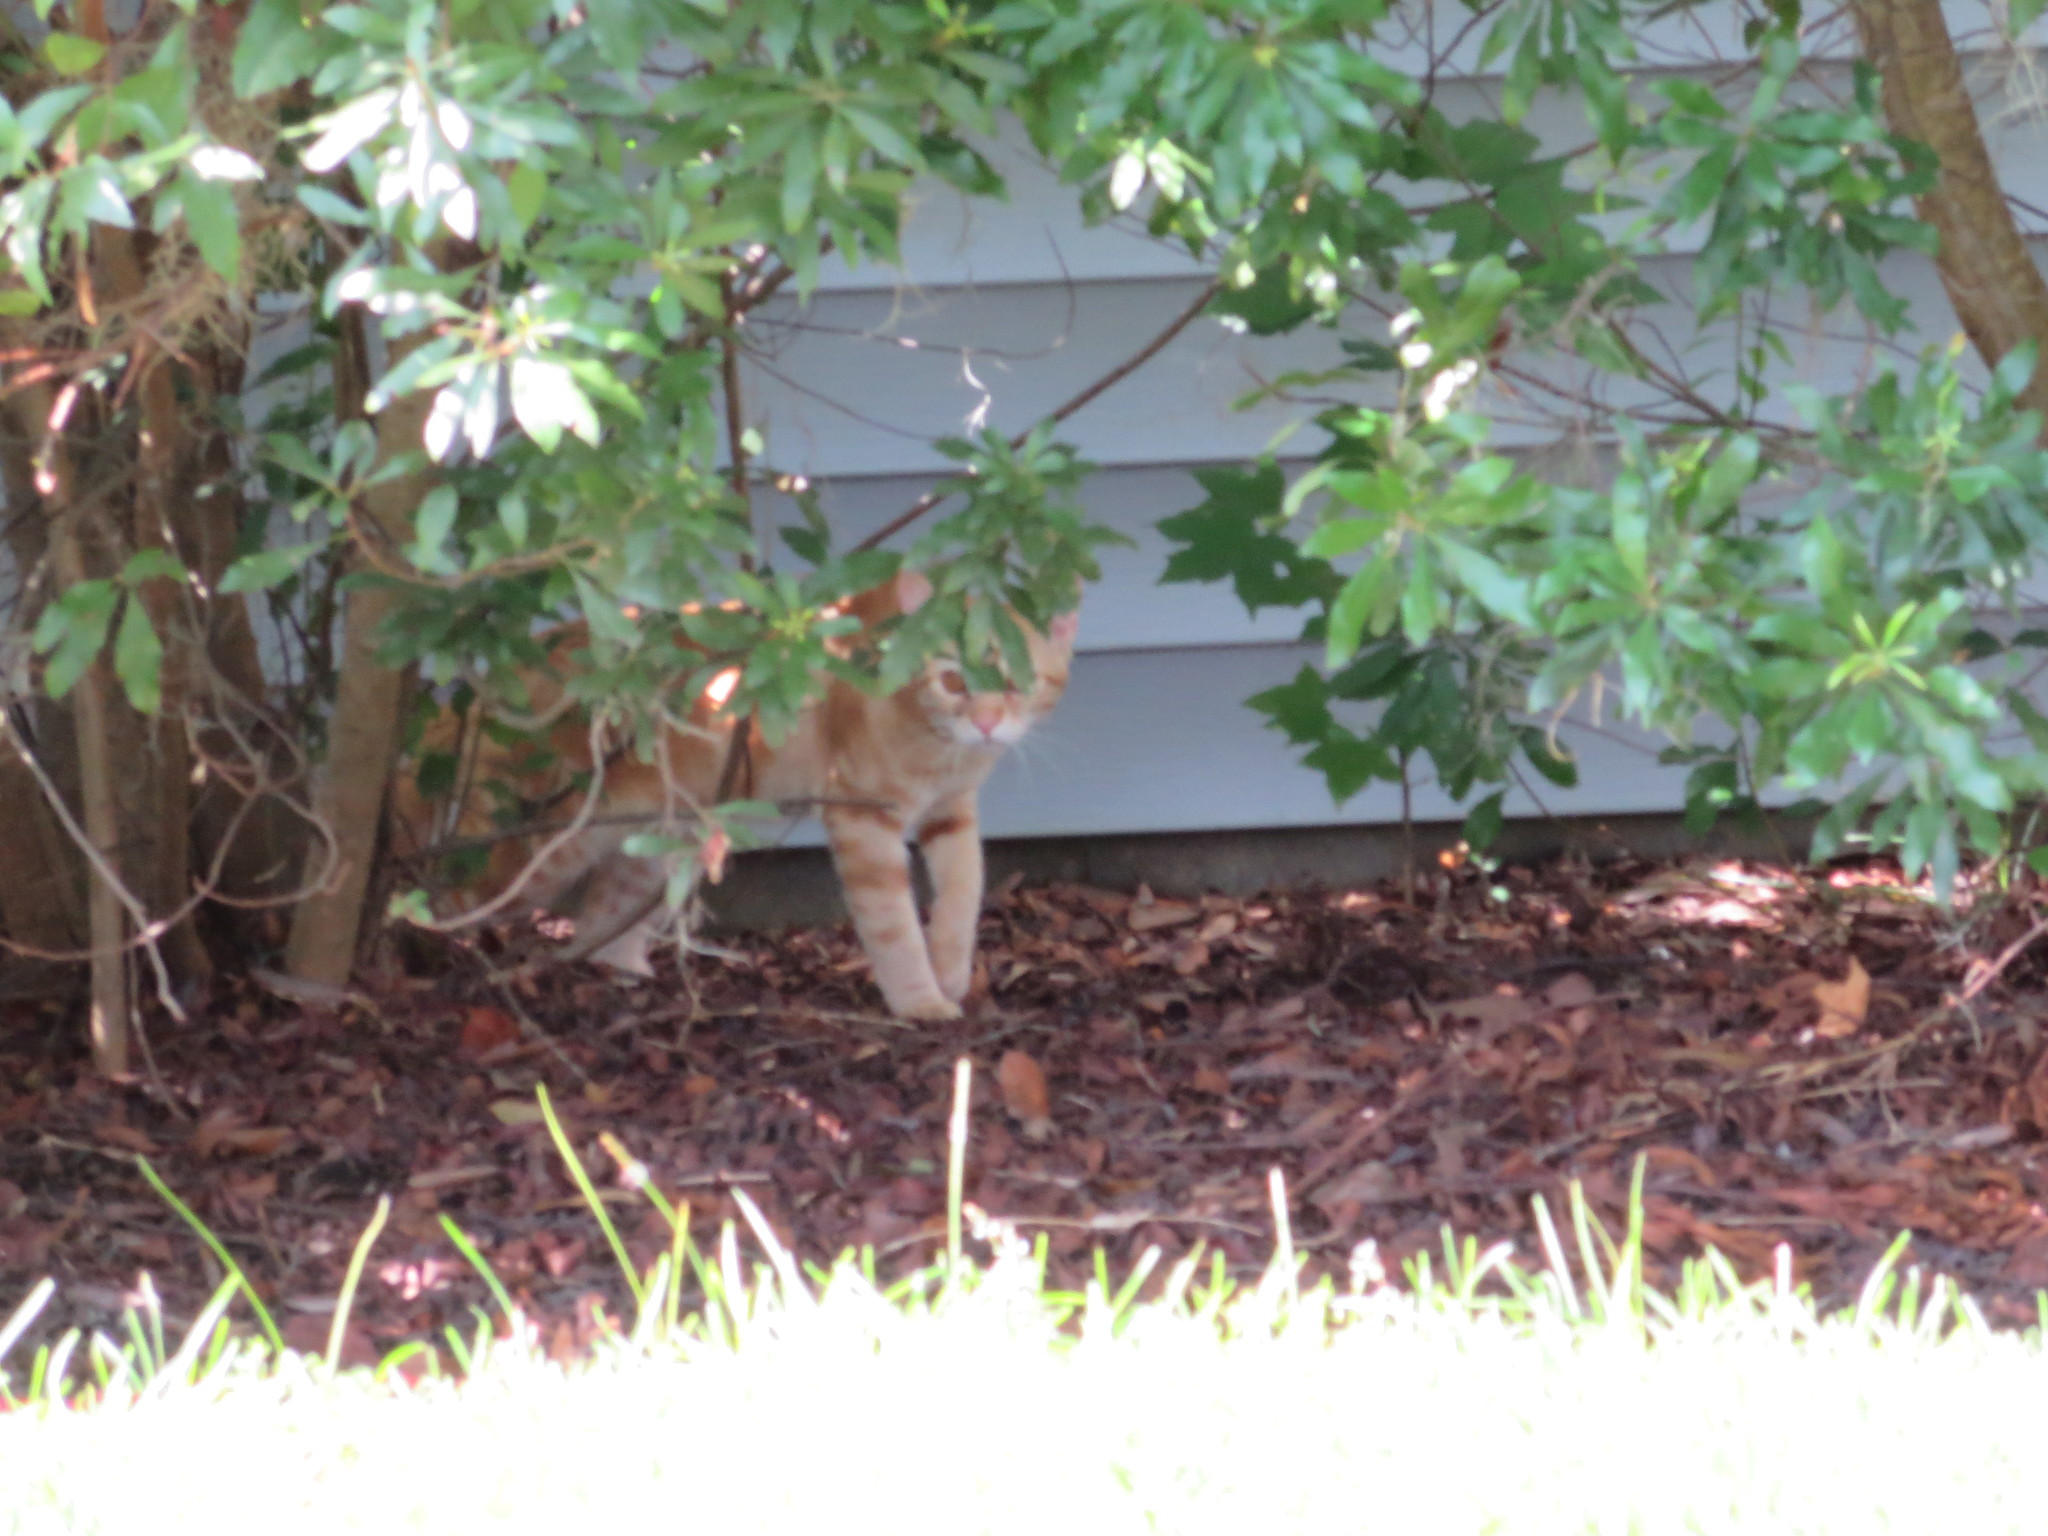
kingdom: Animalia
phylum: Chordata
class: Mammalia
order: Carnivora
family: Felidae
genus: Felis
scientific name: Felis catus
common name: Domestic cat
